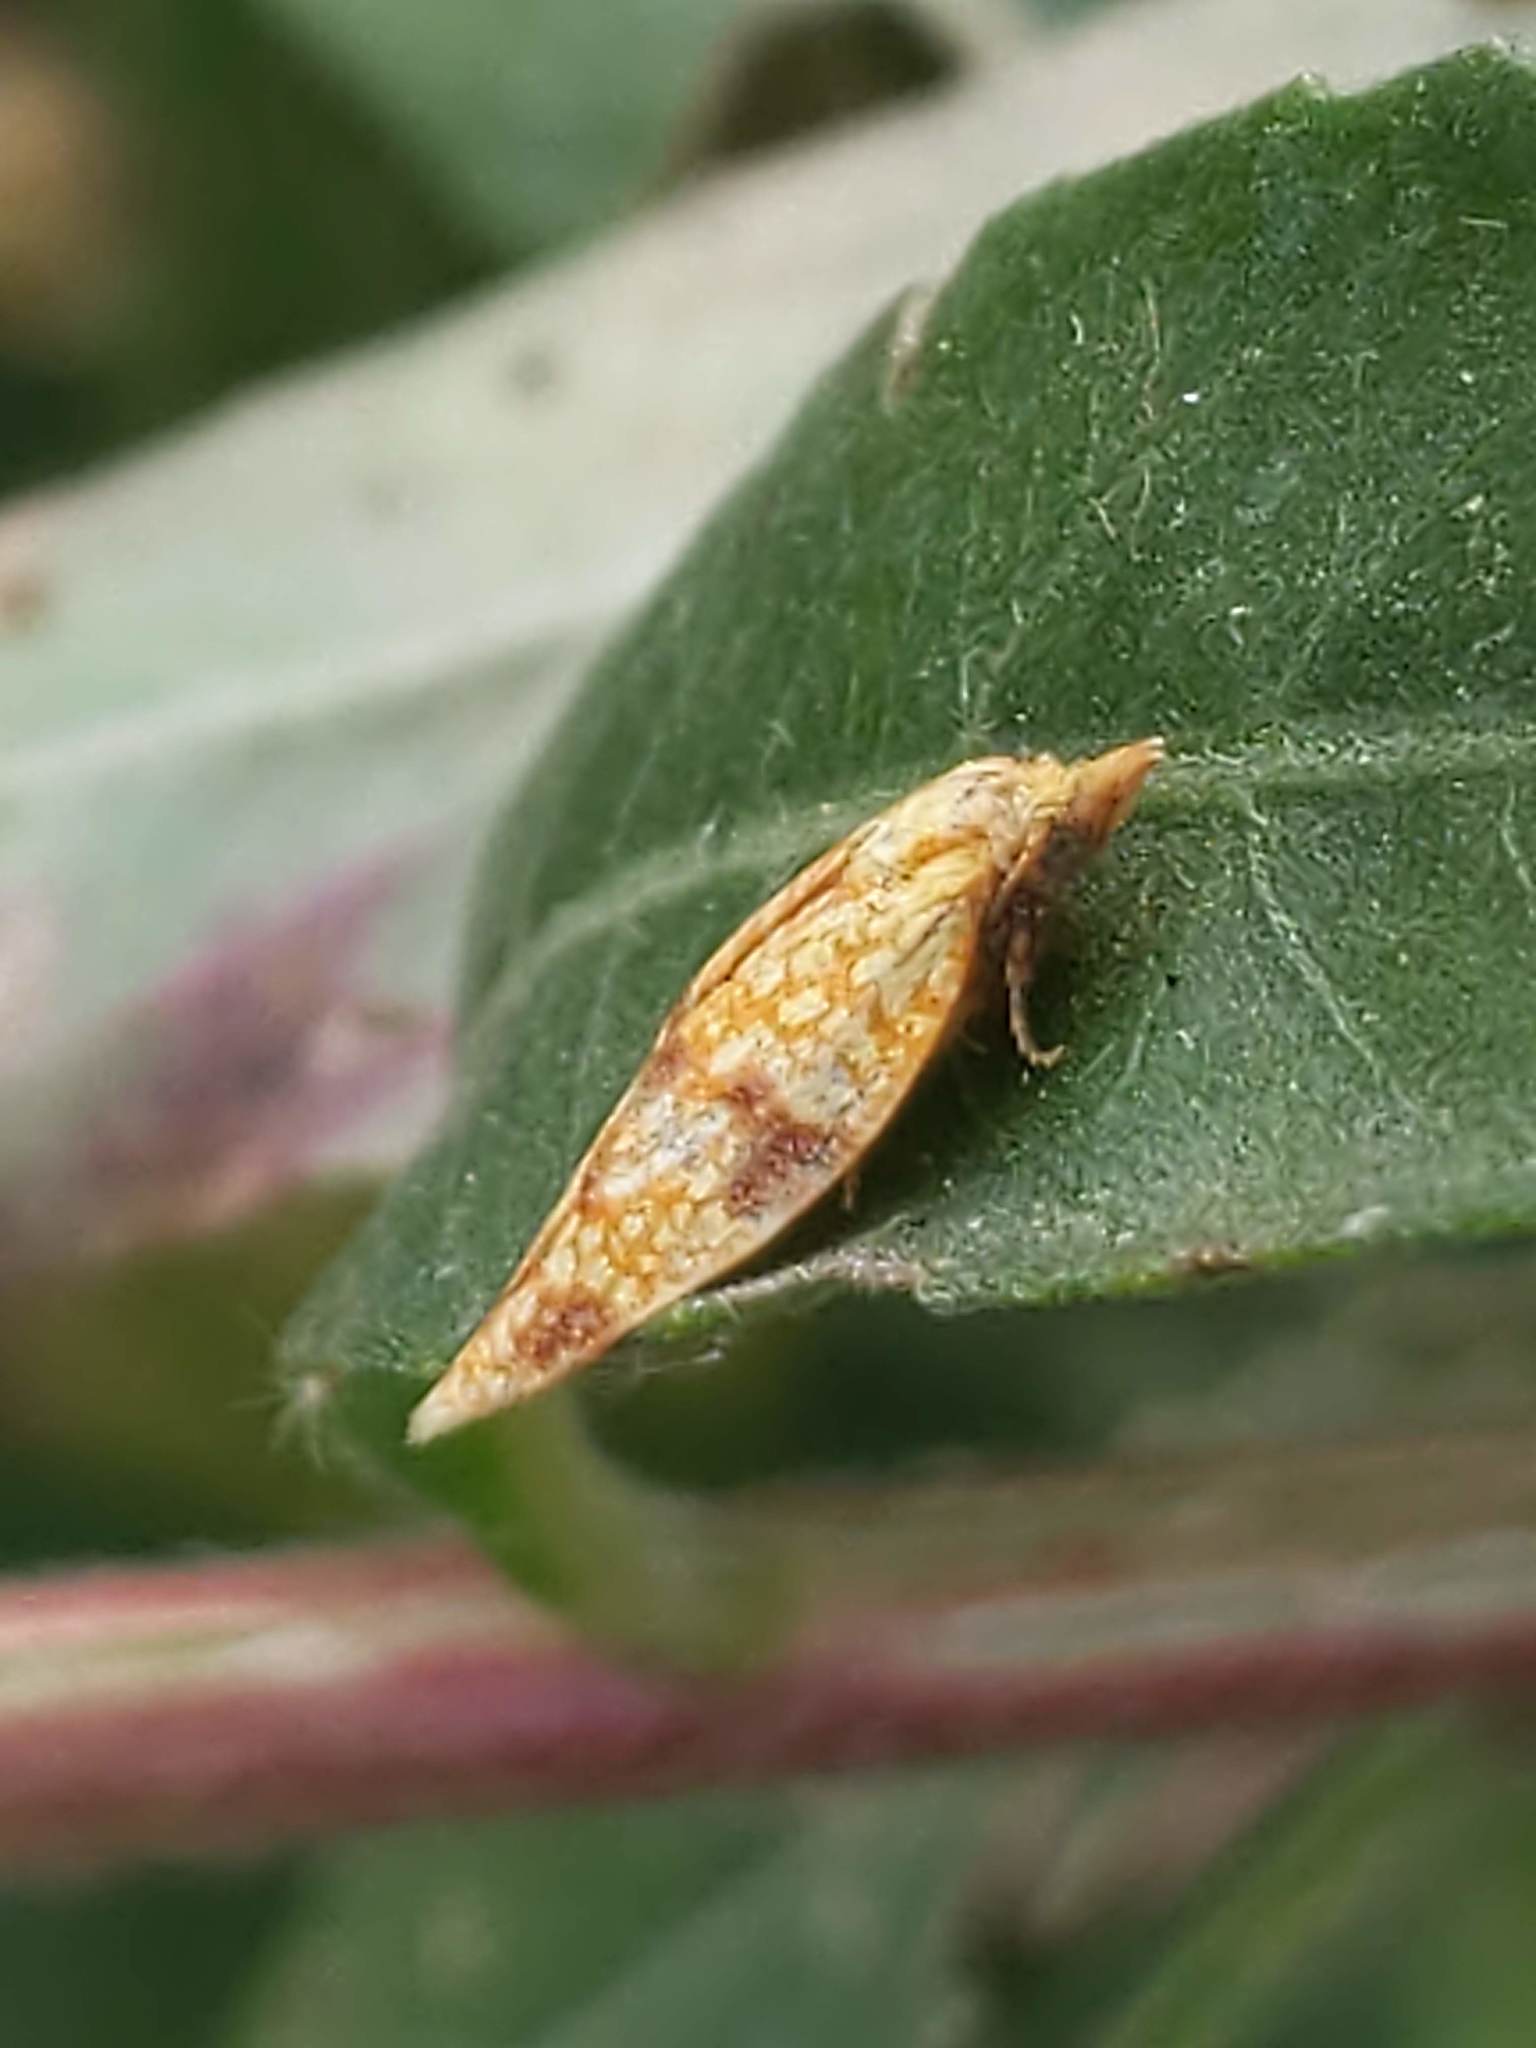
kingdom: Animalia
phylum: Arthropoda
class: Insecta
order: Lepidoptera
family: Tortricidae
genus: Sparganothis
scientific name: Sparganothis sulfureana
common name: Sparganothis fruitworm moth
